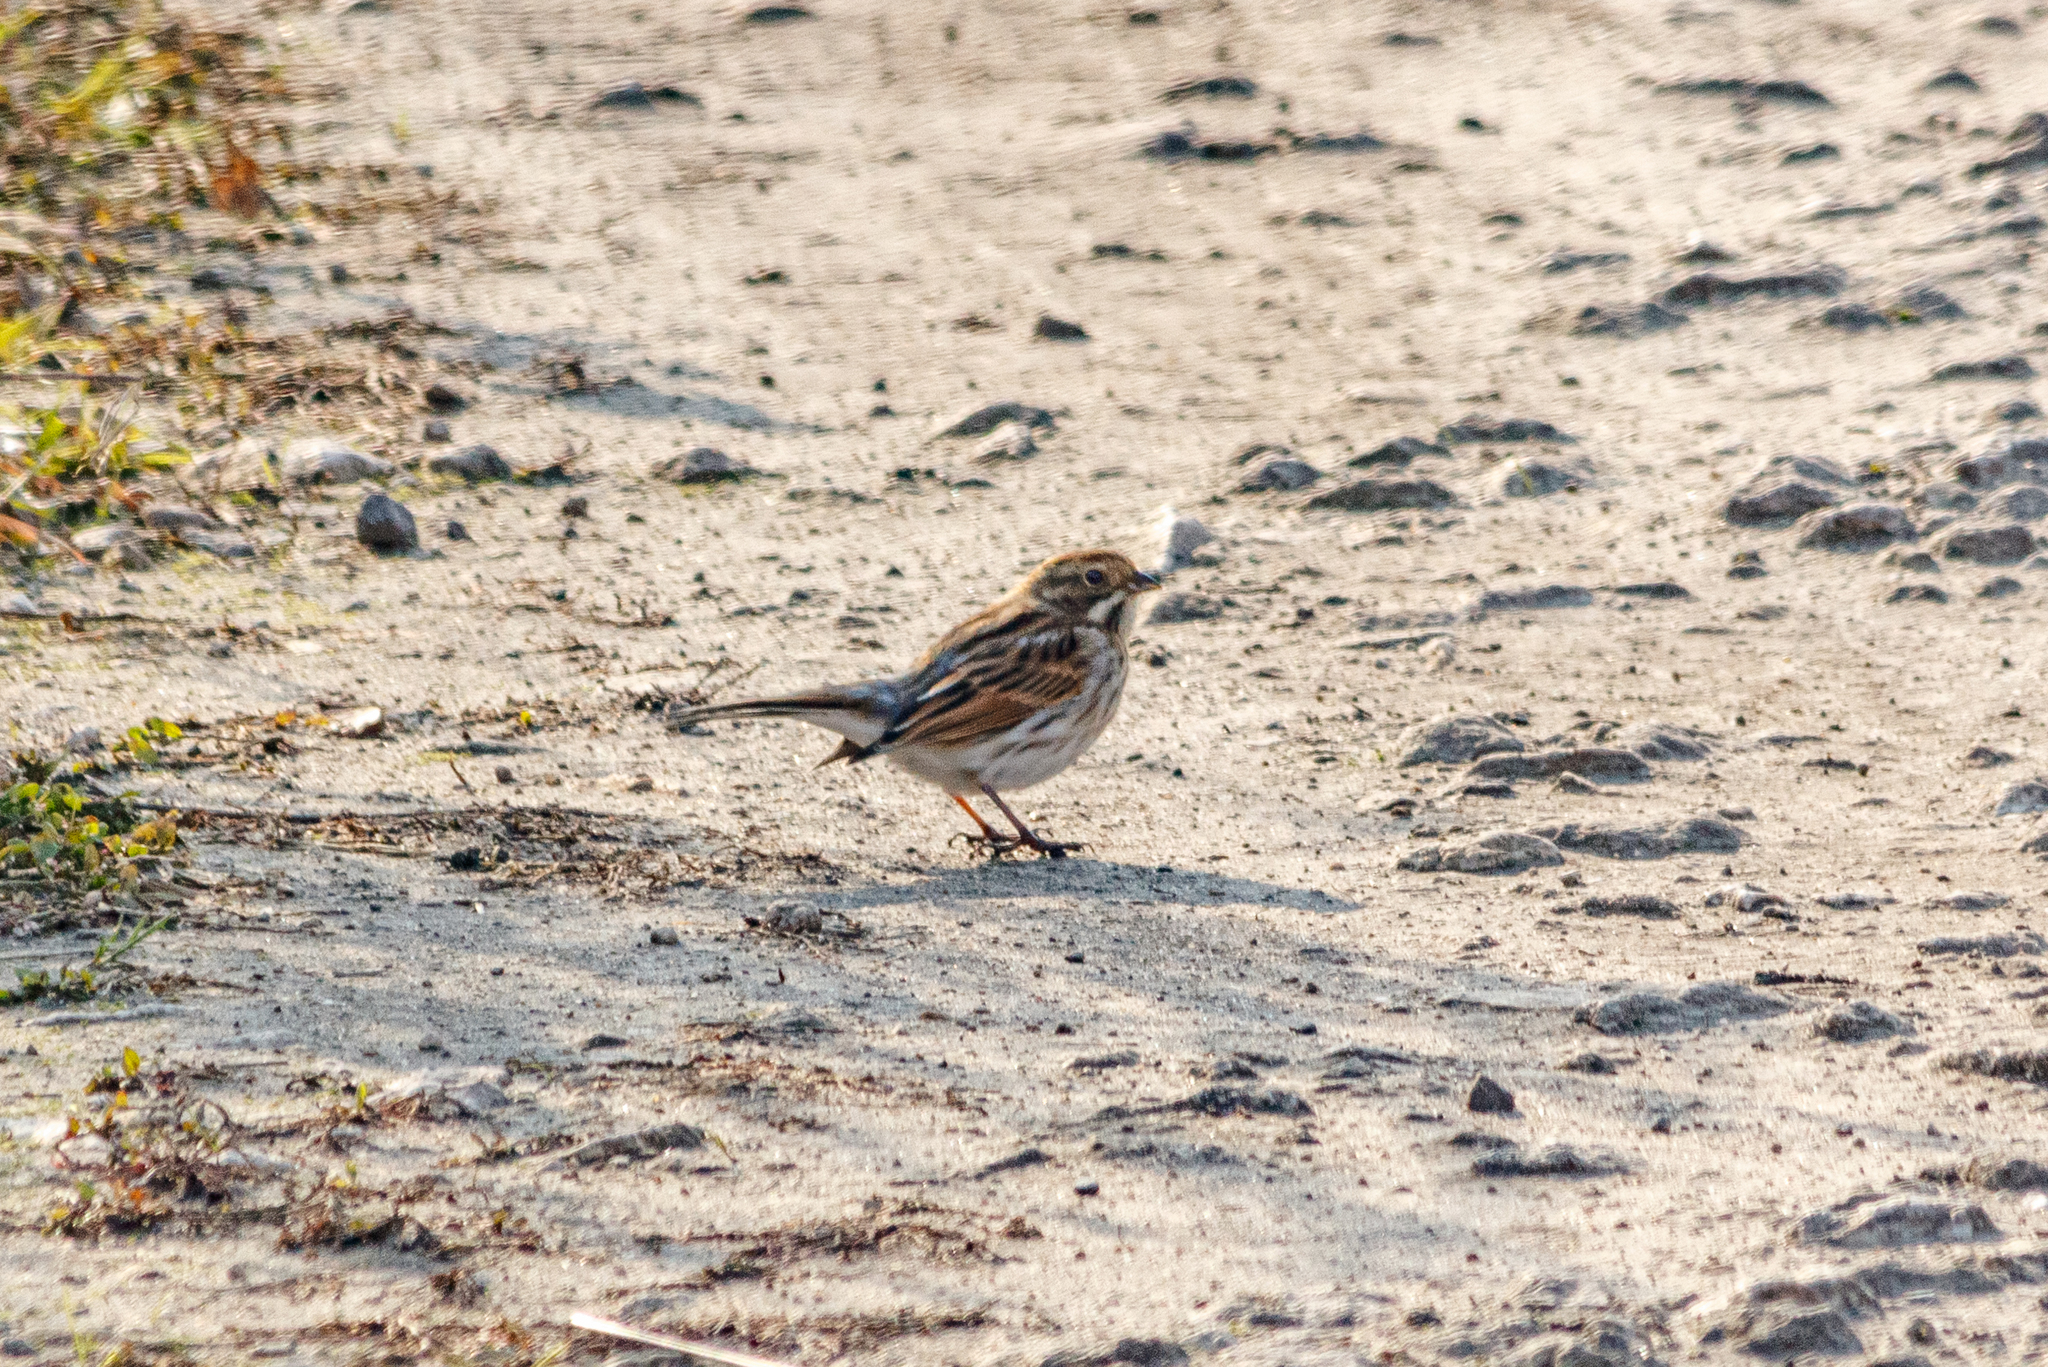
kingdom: Animalia
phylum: Chordata
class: Aves
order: Passeriformes
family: Emberizidae
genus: Emberiza
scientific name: Emberiza schoeniclus
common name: Reed bunting
